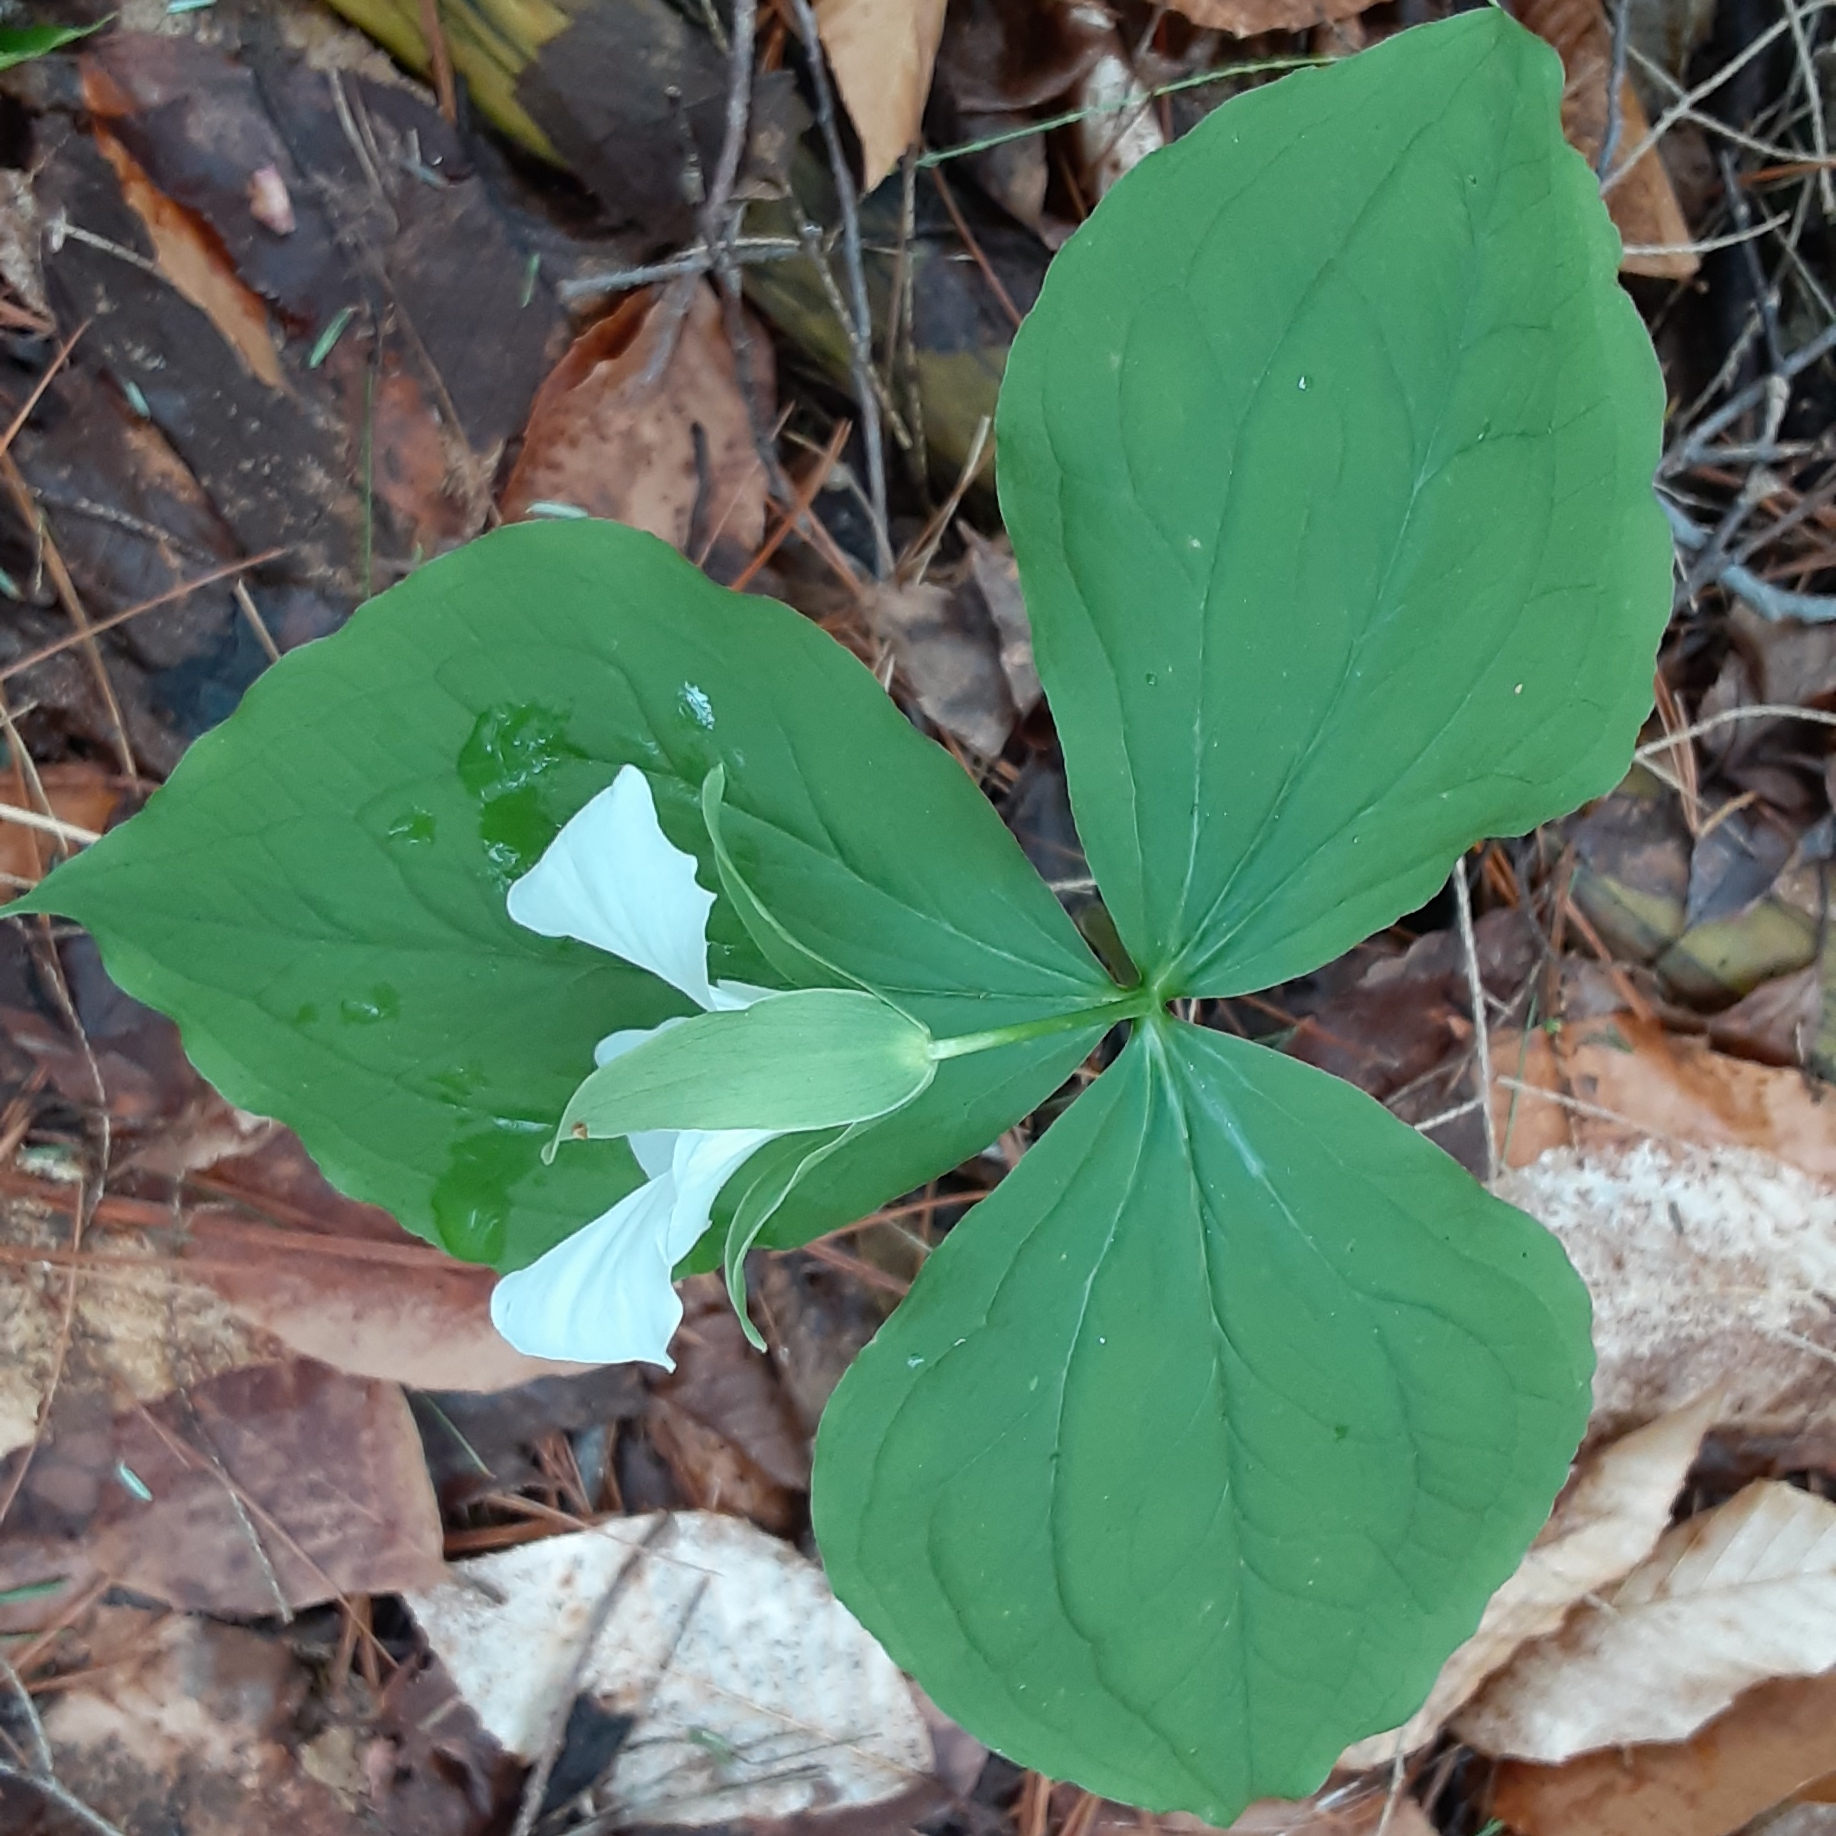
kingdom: Plantae
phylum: Tracheophyta
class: Liliopsida
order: Liliales
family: Melanthiaceae
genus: Trillium
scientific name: Trillium grandiflorum
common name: Great white trillium
